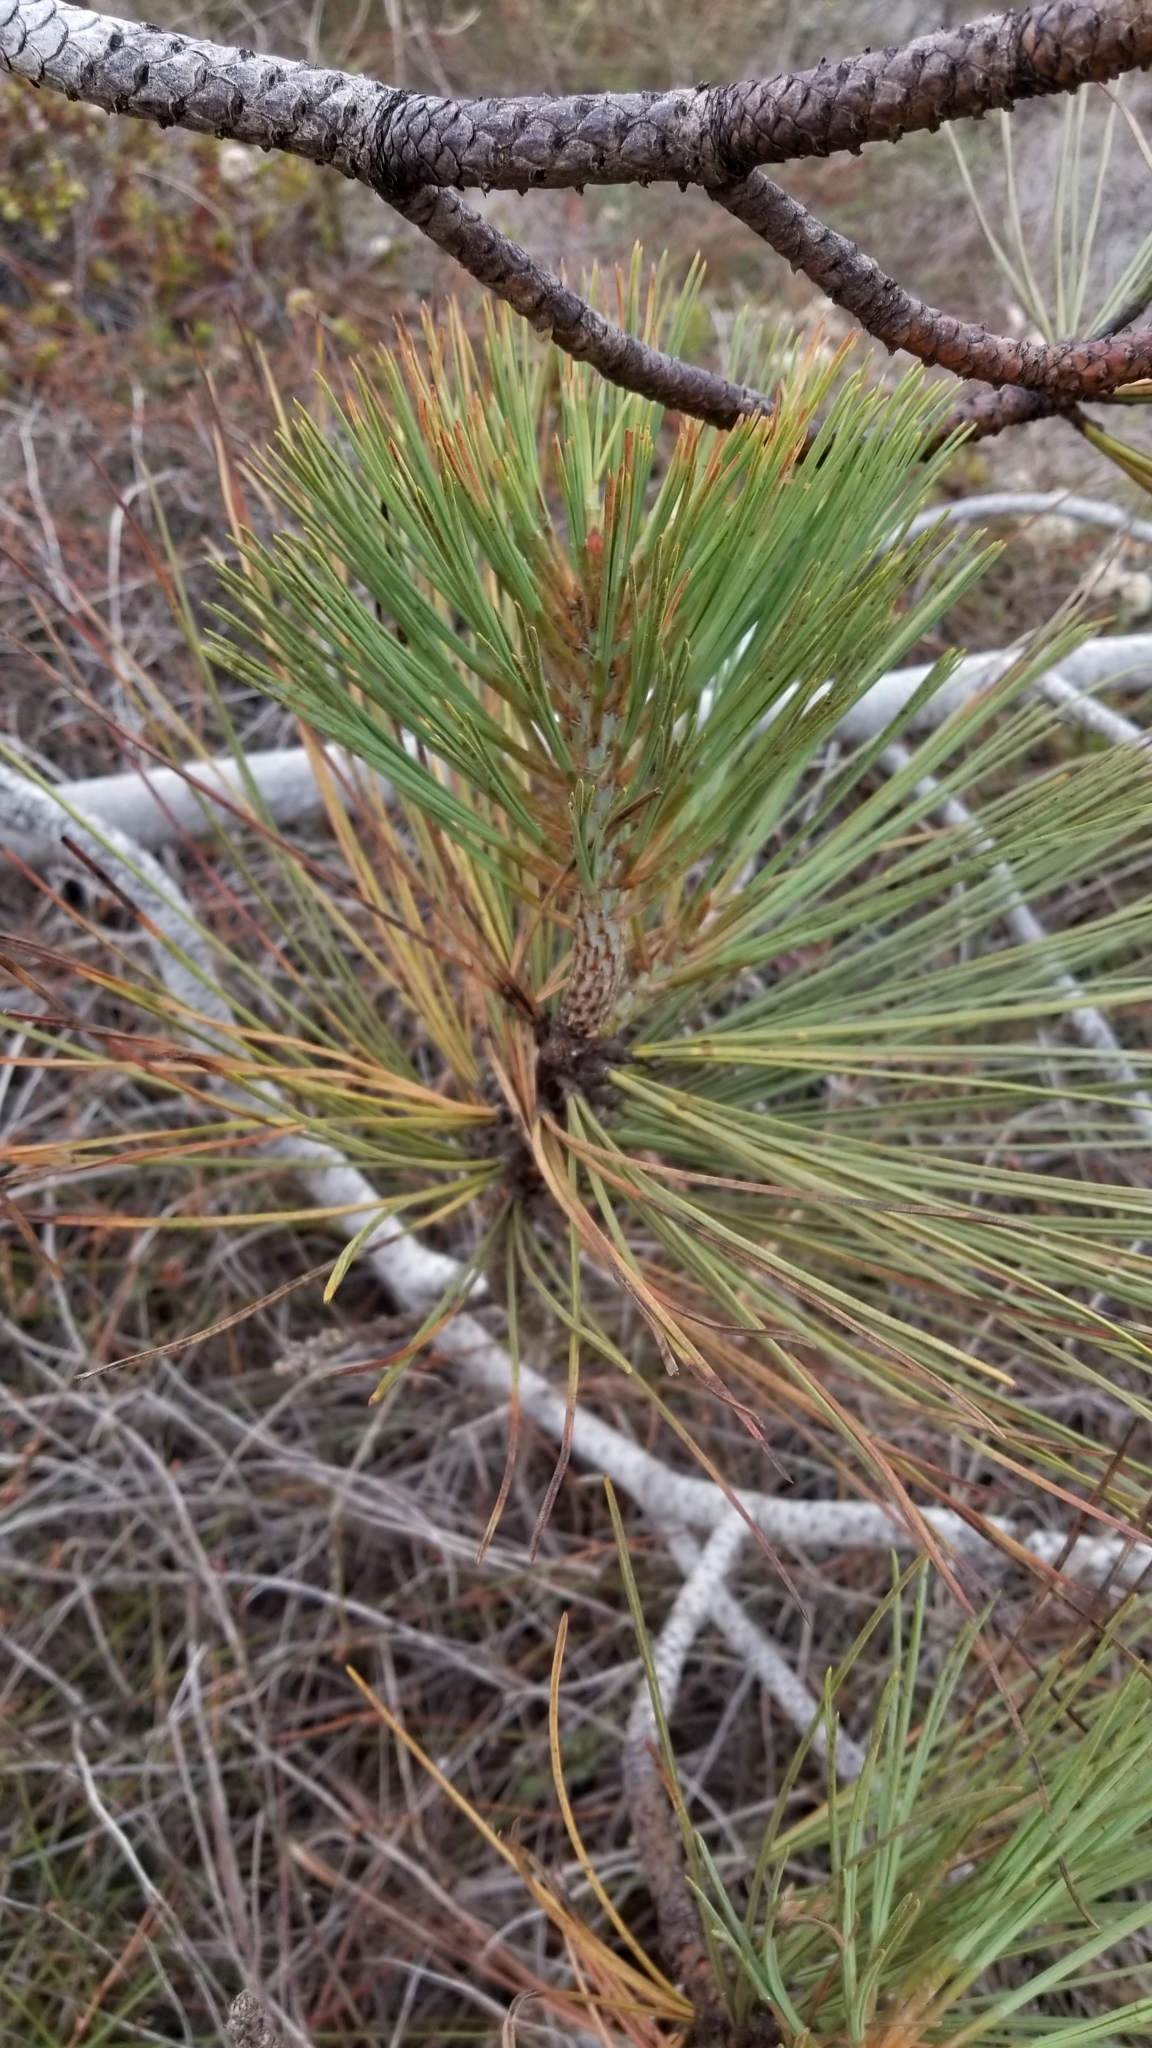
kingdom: Plantae
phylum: Tracheophyta
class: Pinopsida
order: Pinales
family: Pinaceae
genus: Pinus
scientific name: Pinus torreyana
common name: Torrey pine
